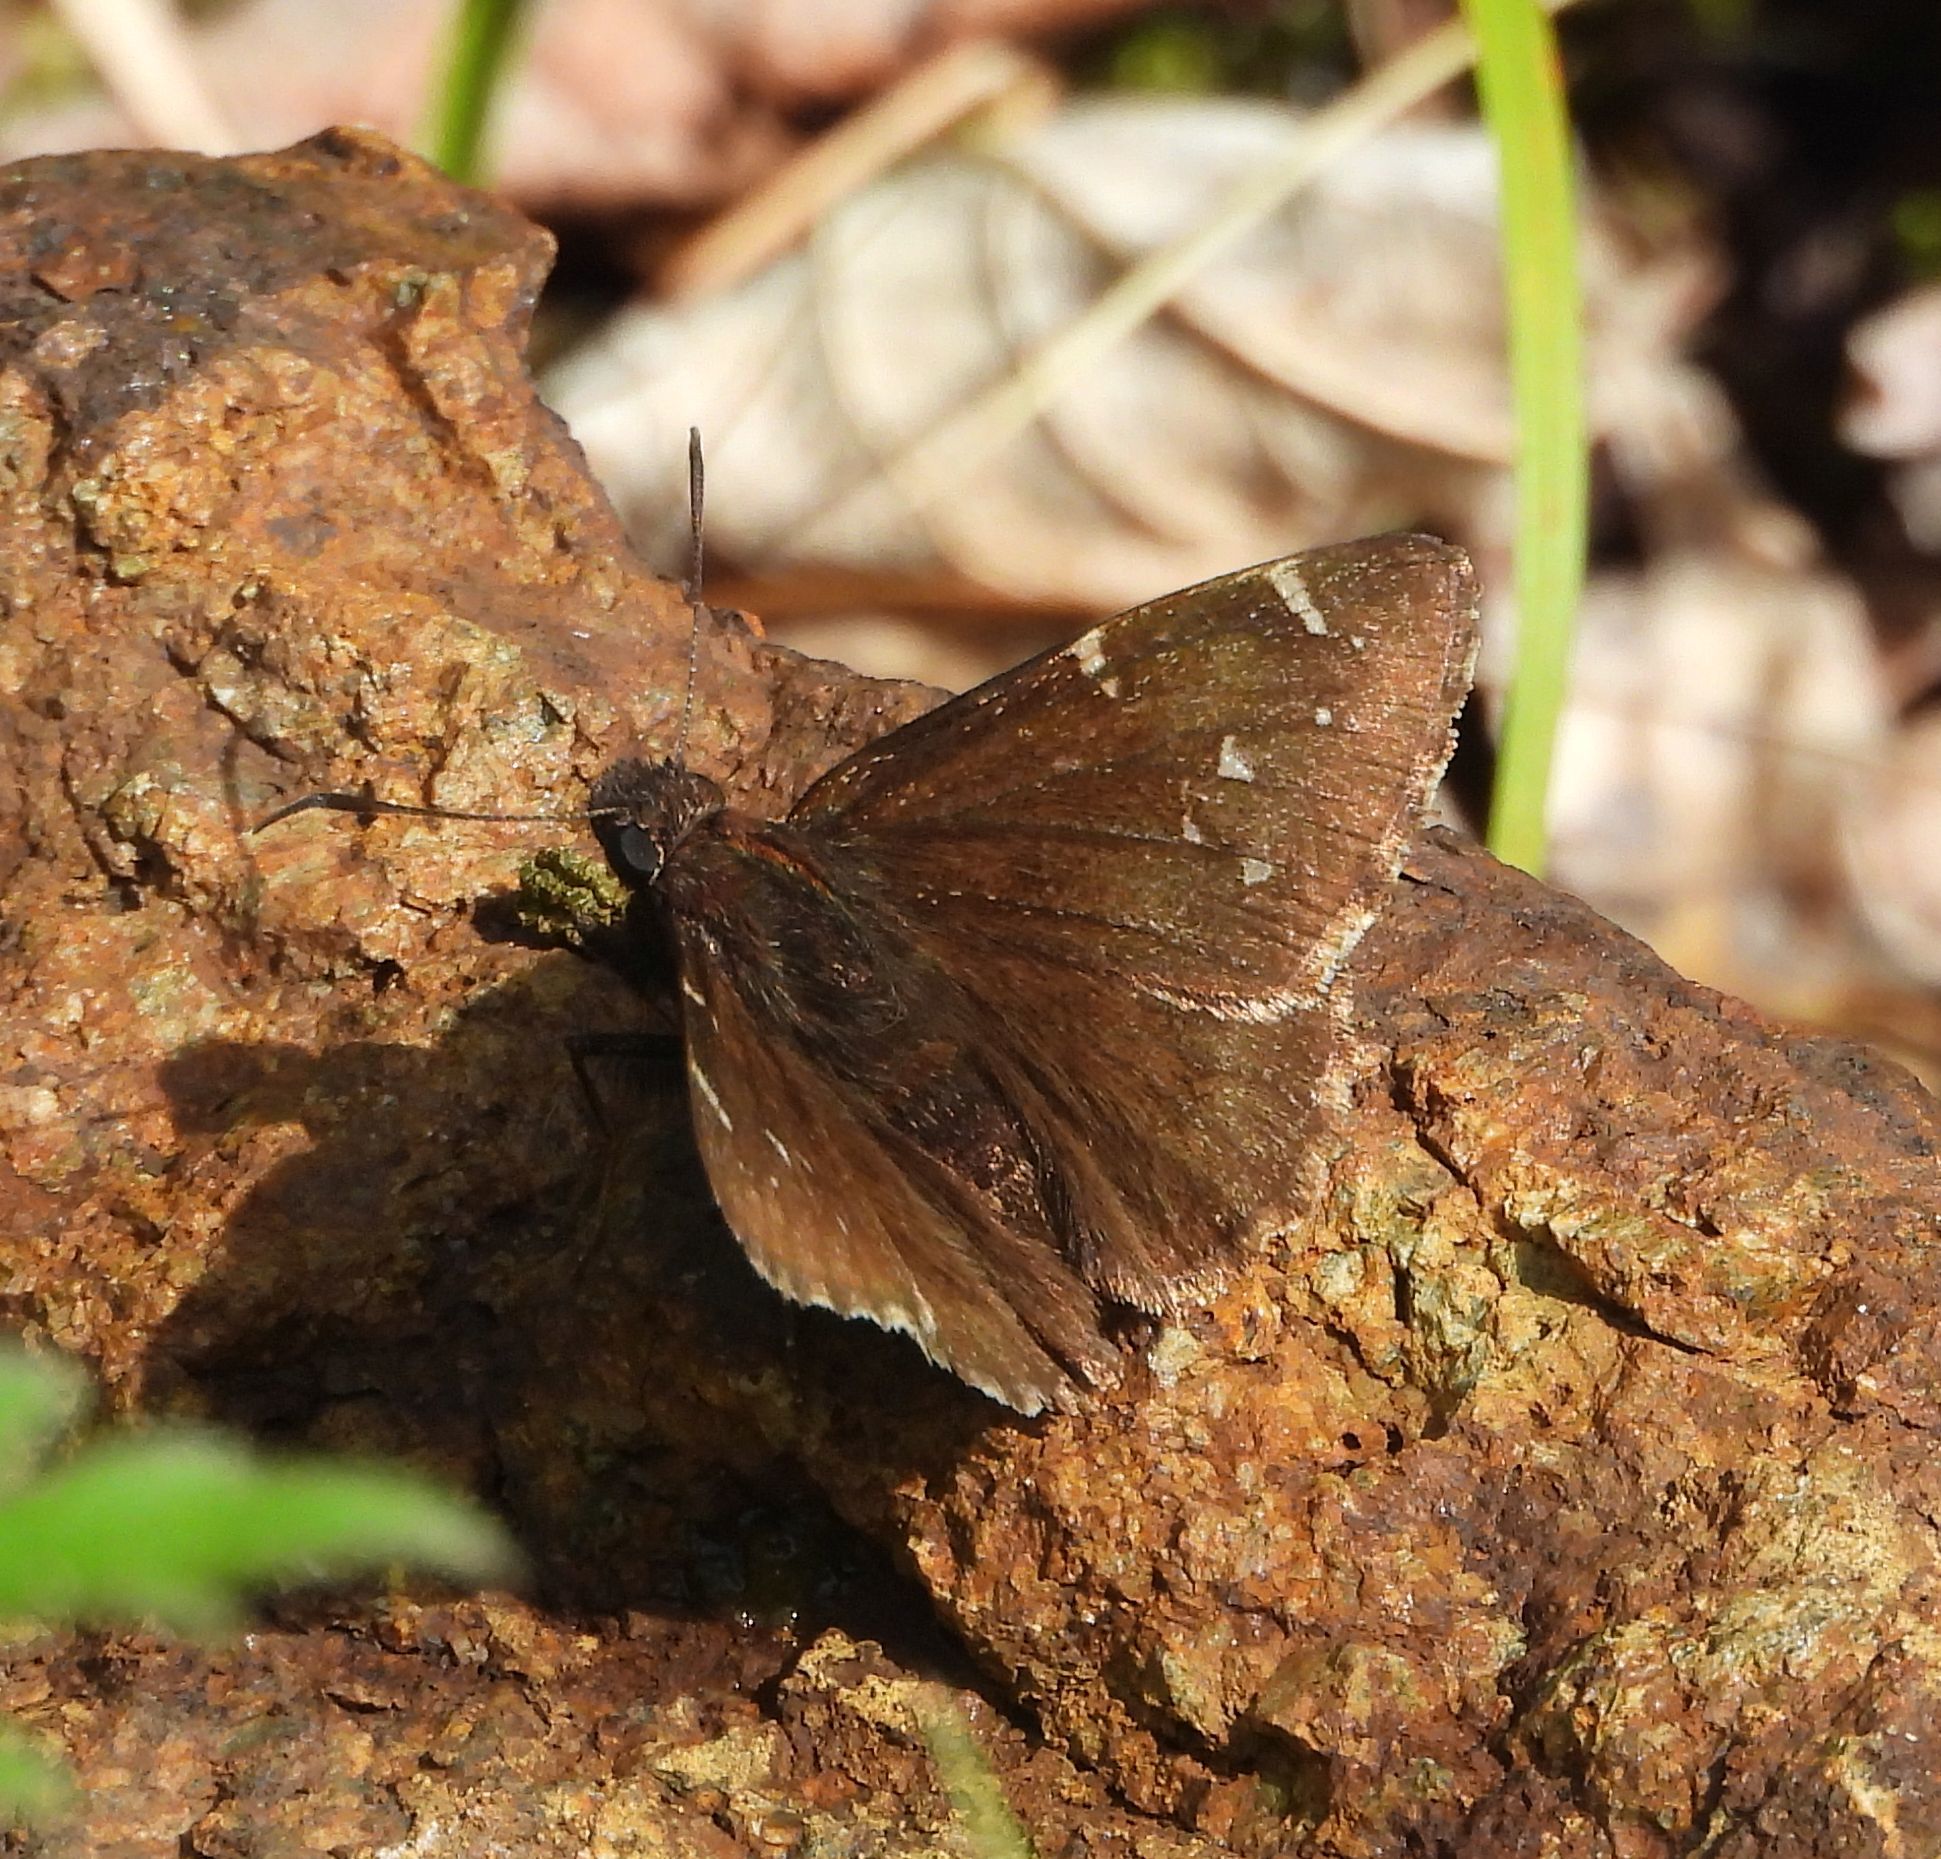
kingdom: Animalia
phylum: Arthropoda
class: Insecta
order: Lepidoptera
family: Hesperiidae
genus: Thorybes
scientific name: Thorybes pylades
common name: Northern cloudywing
